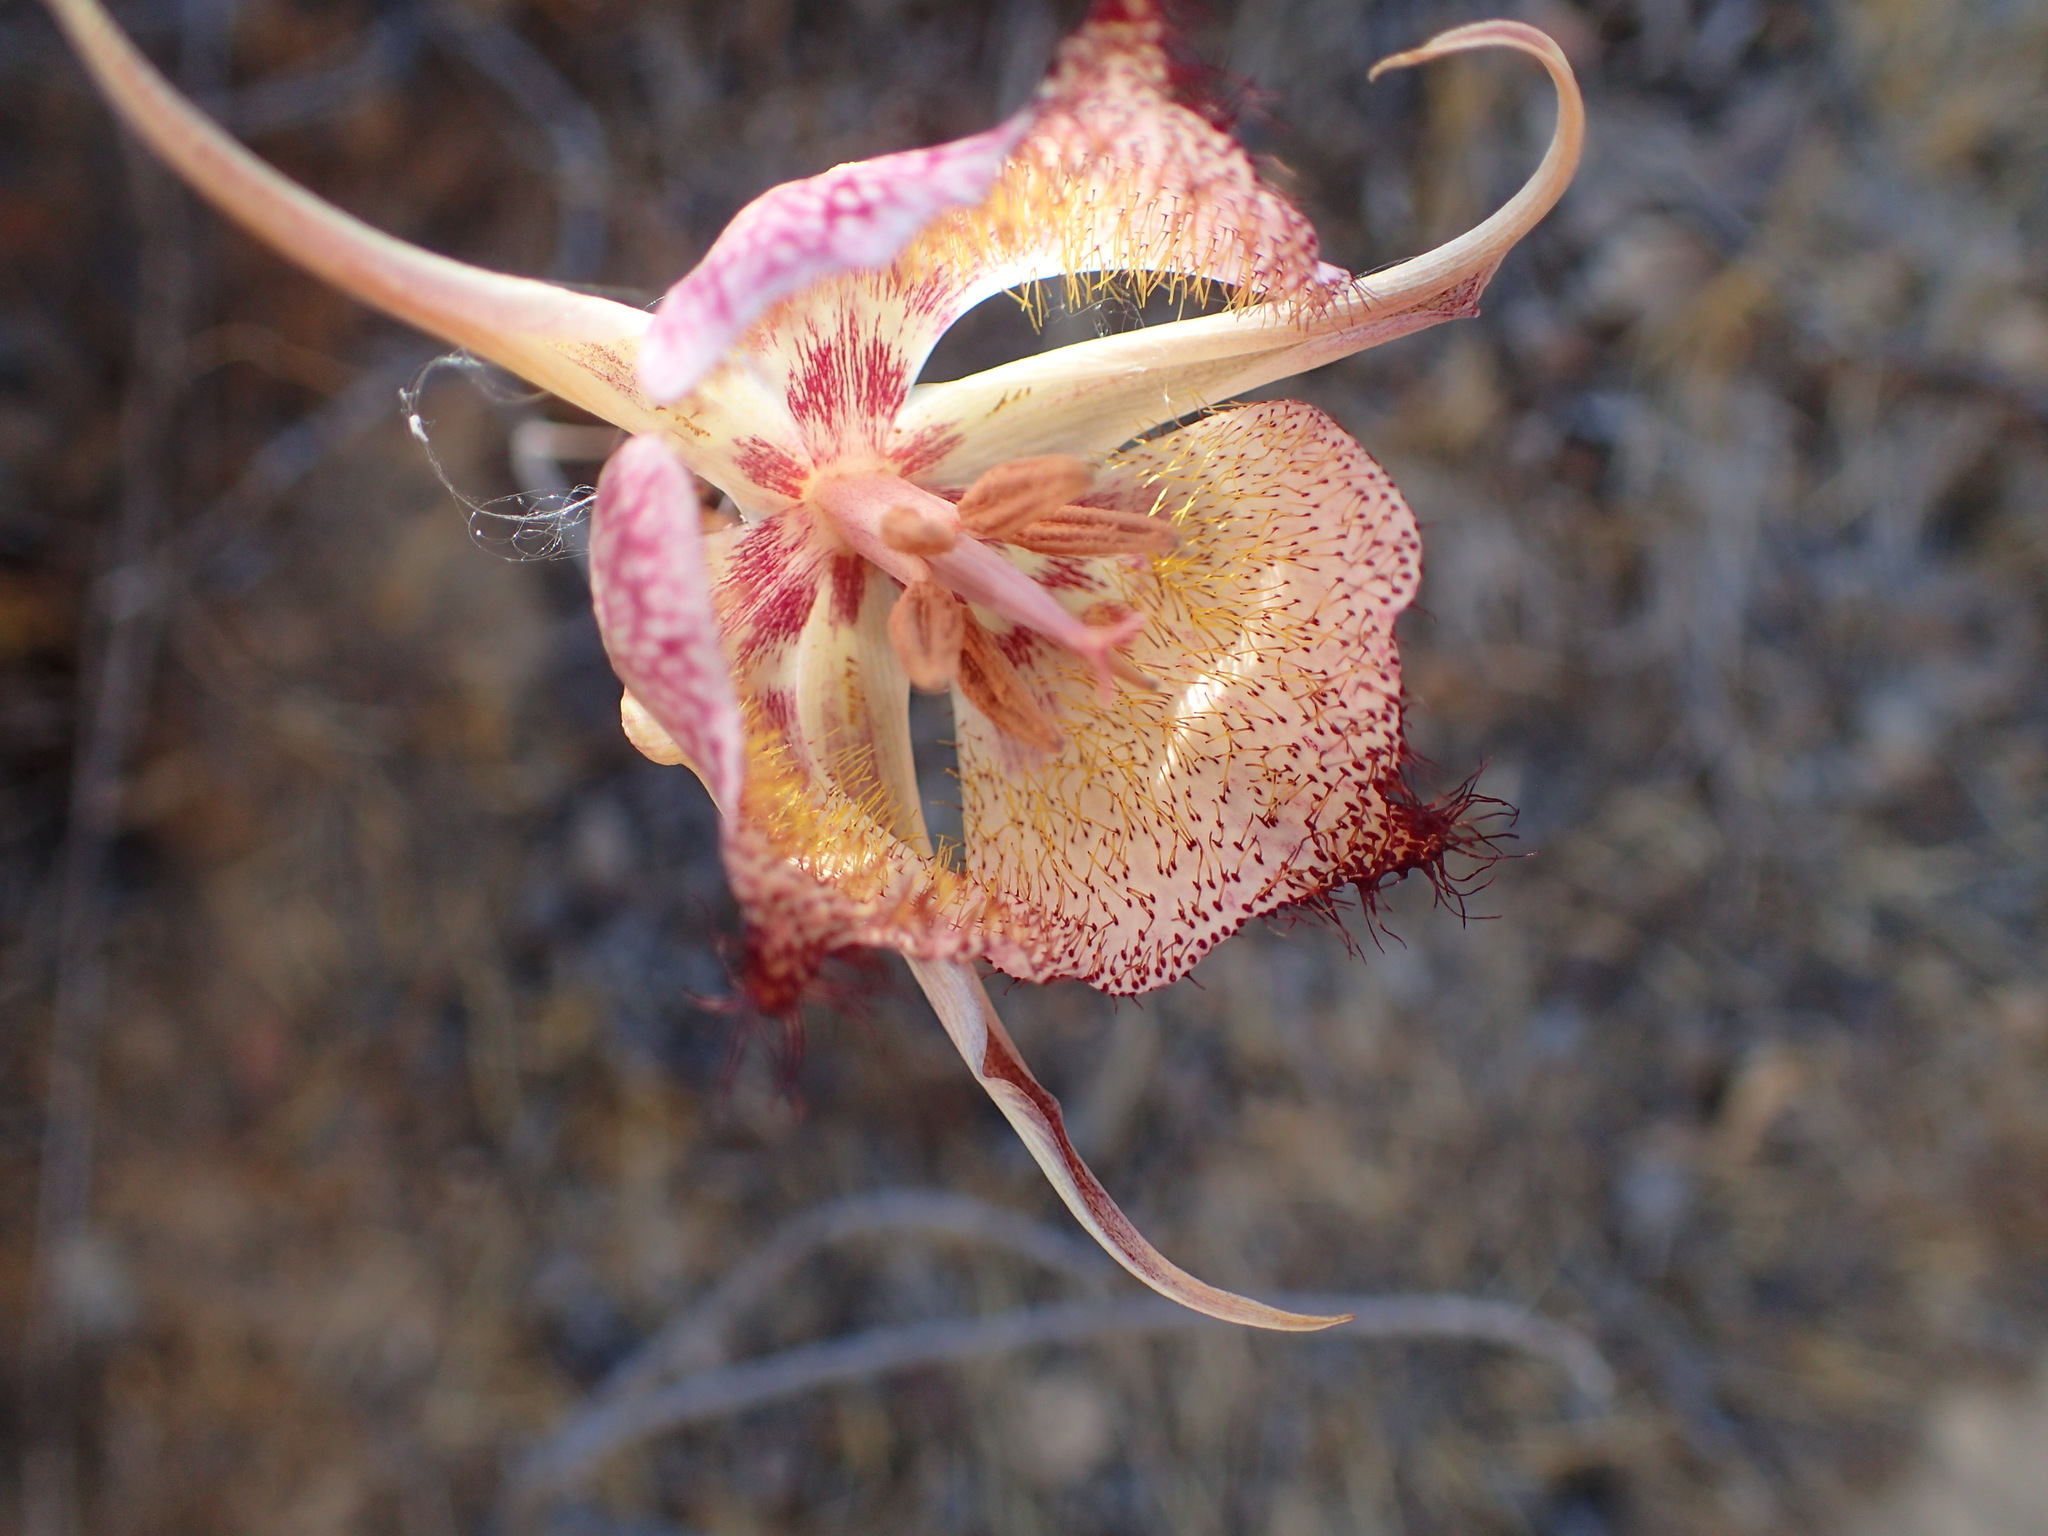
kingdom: Plantae
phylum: Tracheophyta
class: Liliopsida
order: Liliales
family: Liliaceae
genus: Calochortus
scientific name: Calochortus fimbriatus
